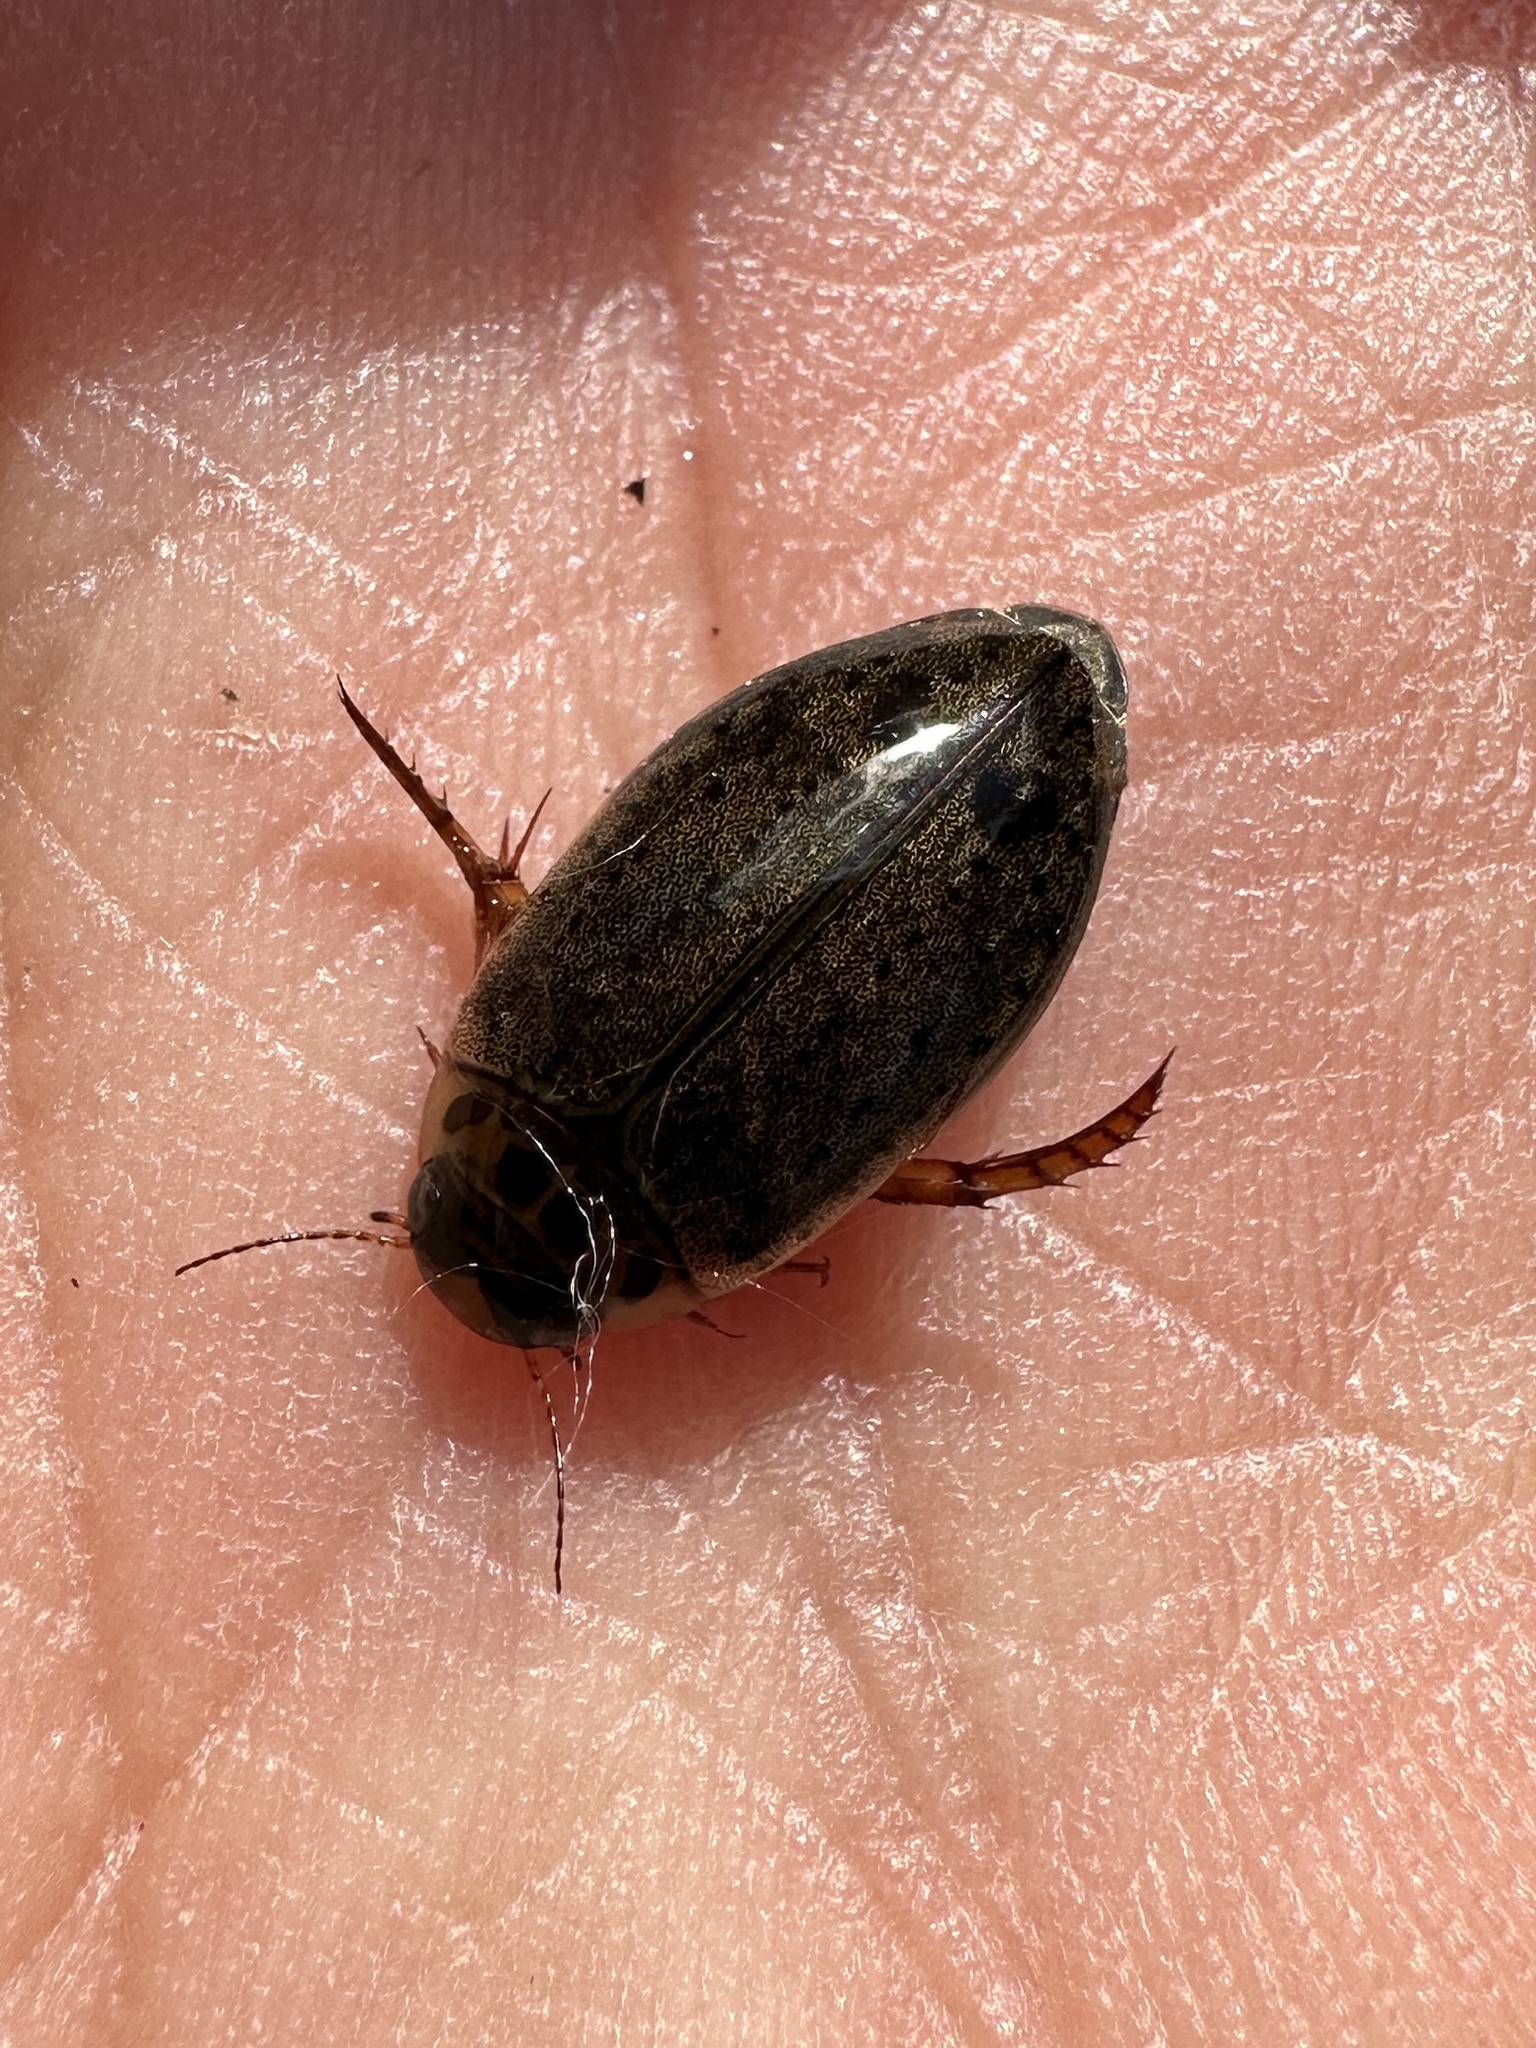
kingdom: Animalia
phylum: Arthropoda
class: Insecta
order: Coleoptera
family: Dytiscidae
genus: Rhantus
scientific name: Rhantus gutticollis
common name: Predaceous diving beetle
